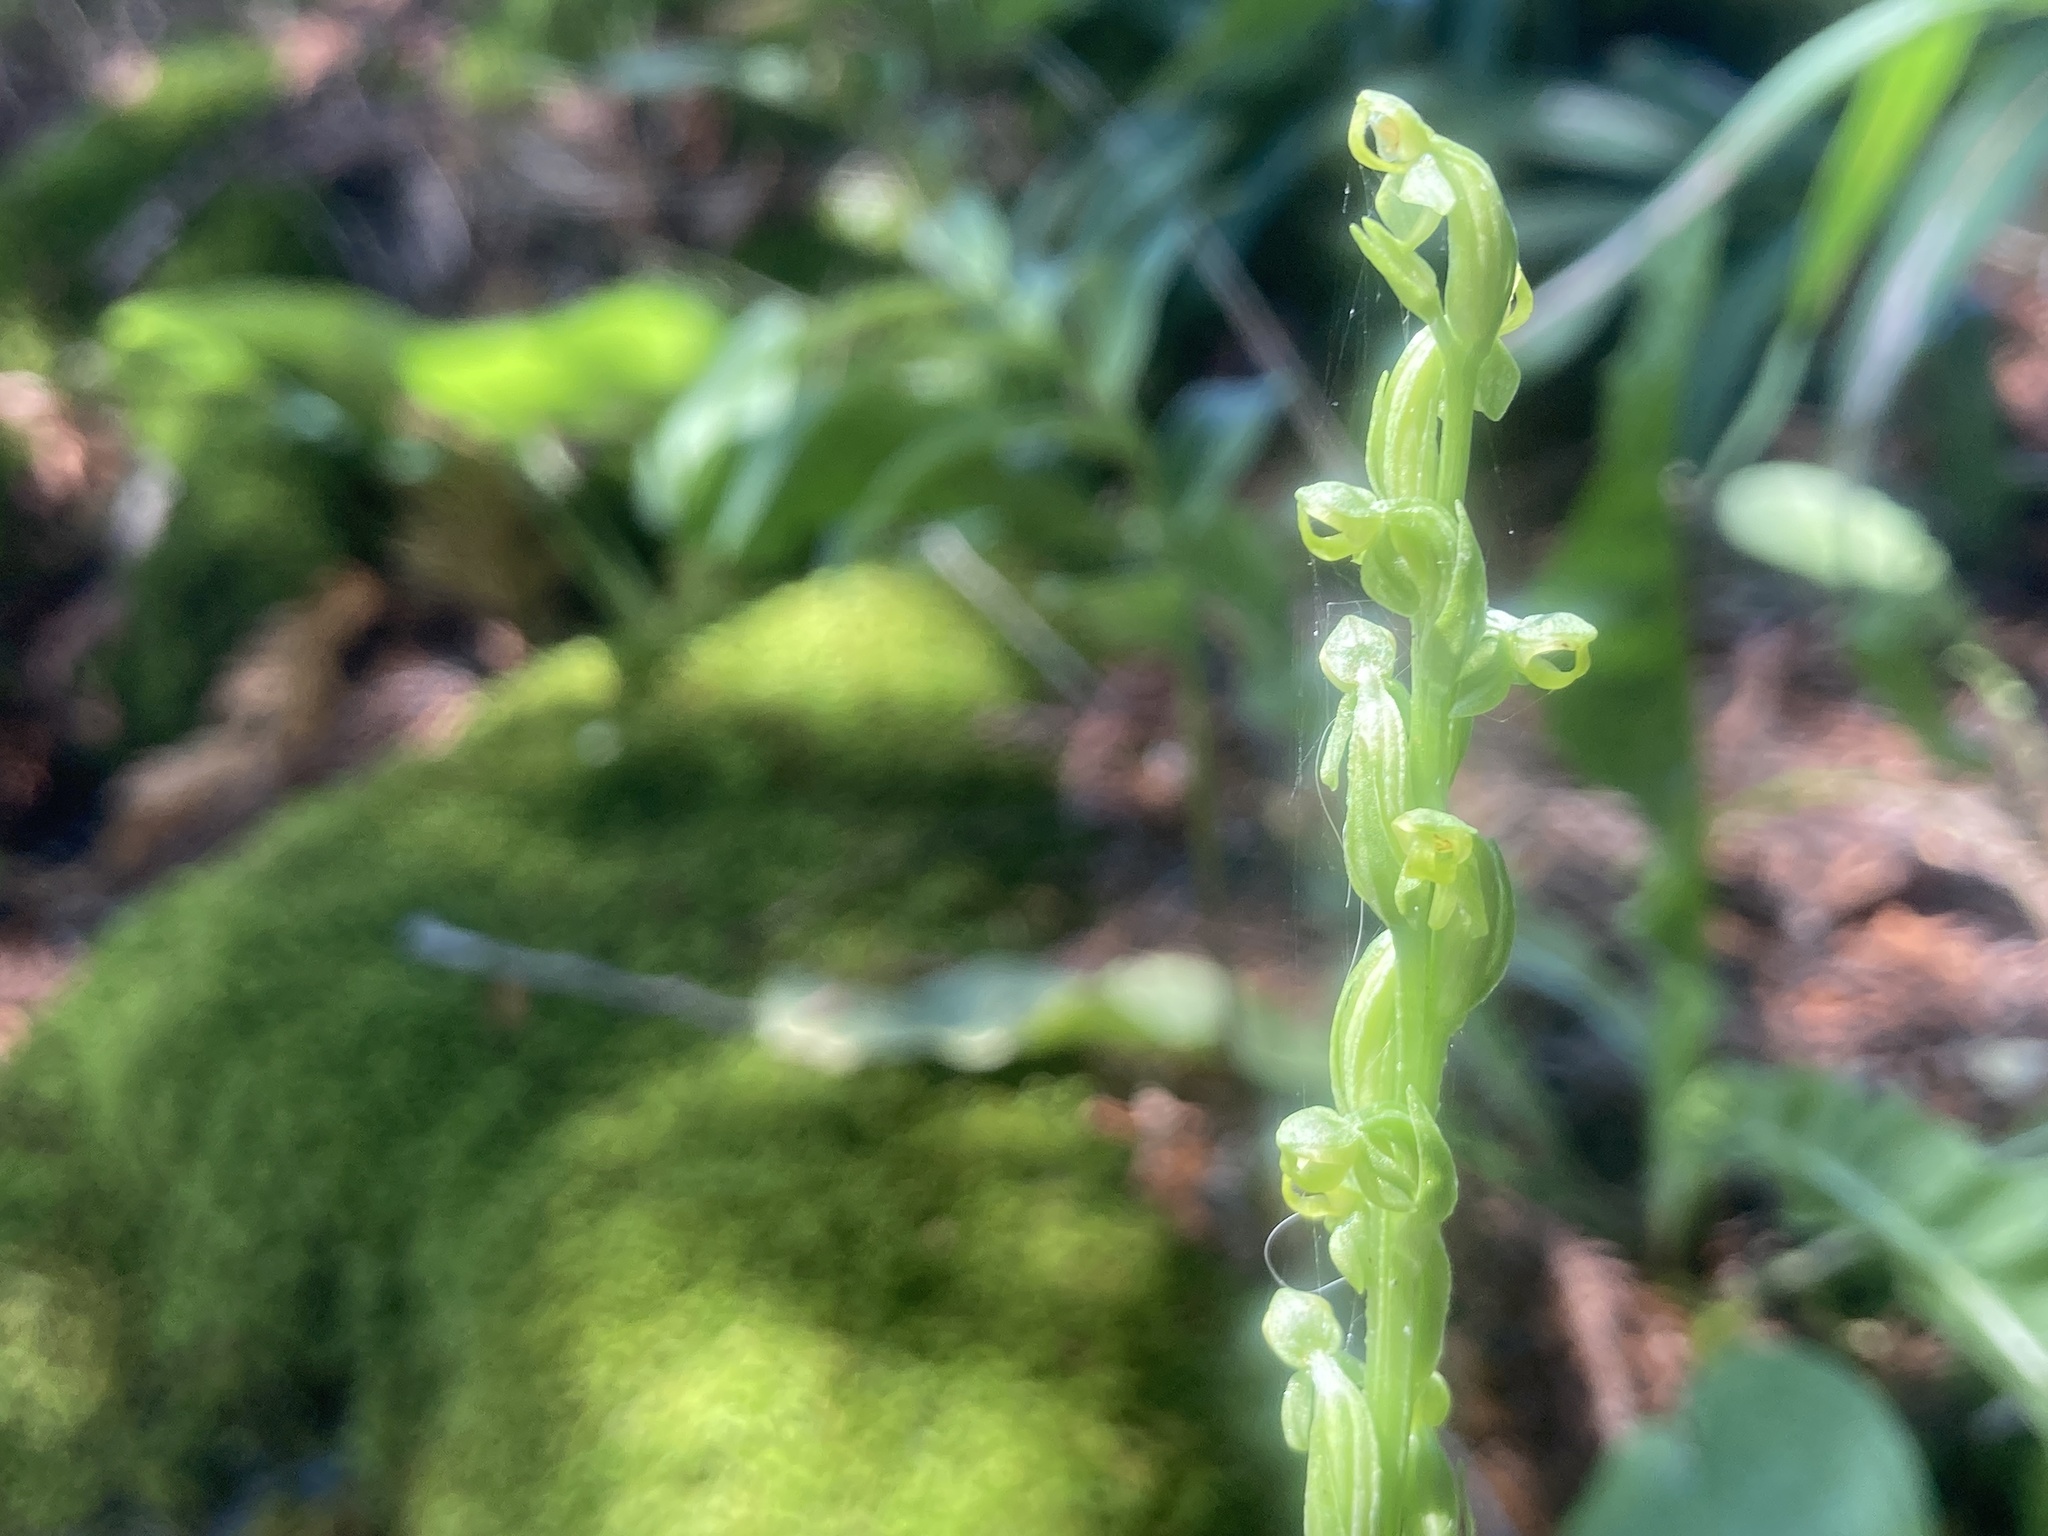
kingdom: Plantae
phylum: Tracheophyta
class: Liliopsida
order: Asparagales
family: Orchidaceae
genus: Platanthera
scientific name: Platanthera aquilonis
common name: Northern green orchid
